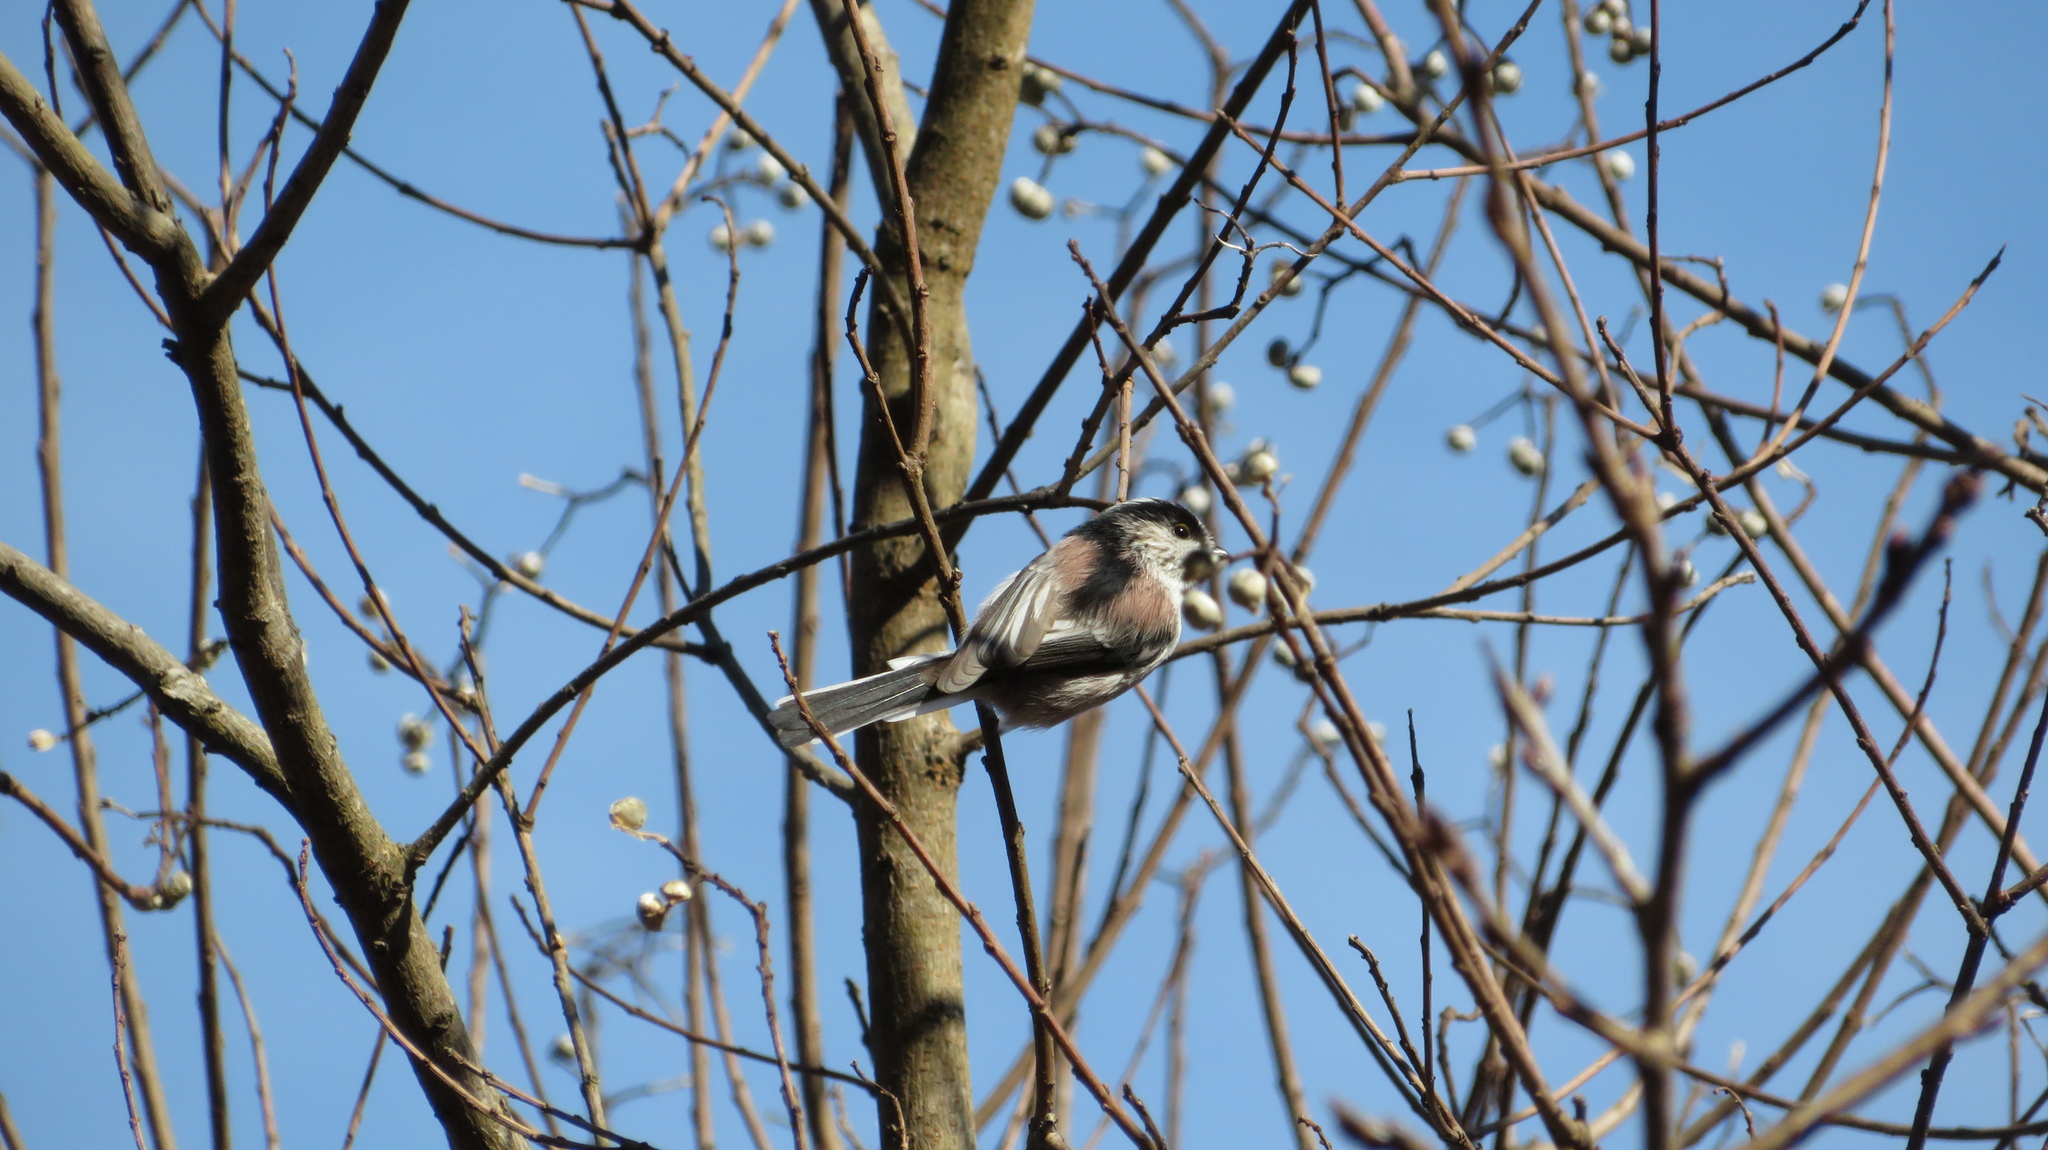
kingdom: Animalia
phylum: Chordata
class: Aves
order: Passeriformes
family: Aegithalidae
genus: Aegithalos
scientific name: Aegithalos caudatus
